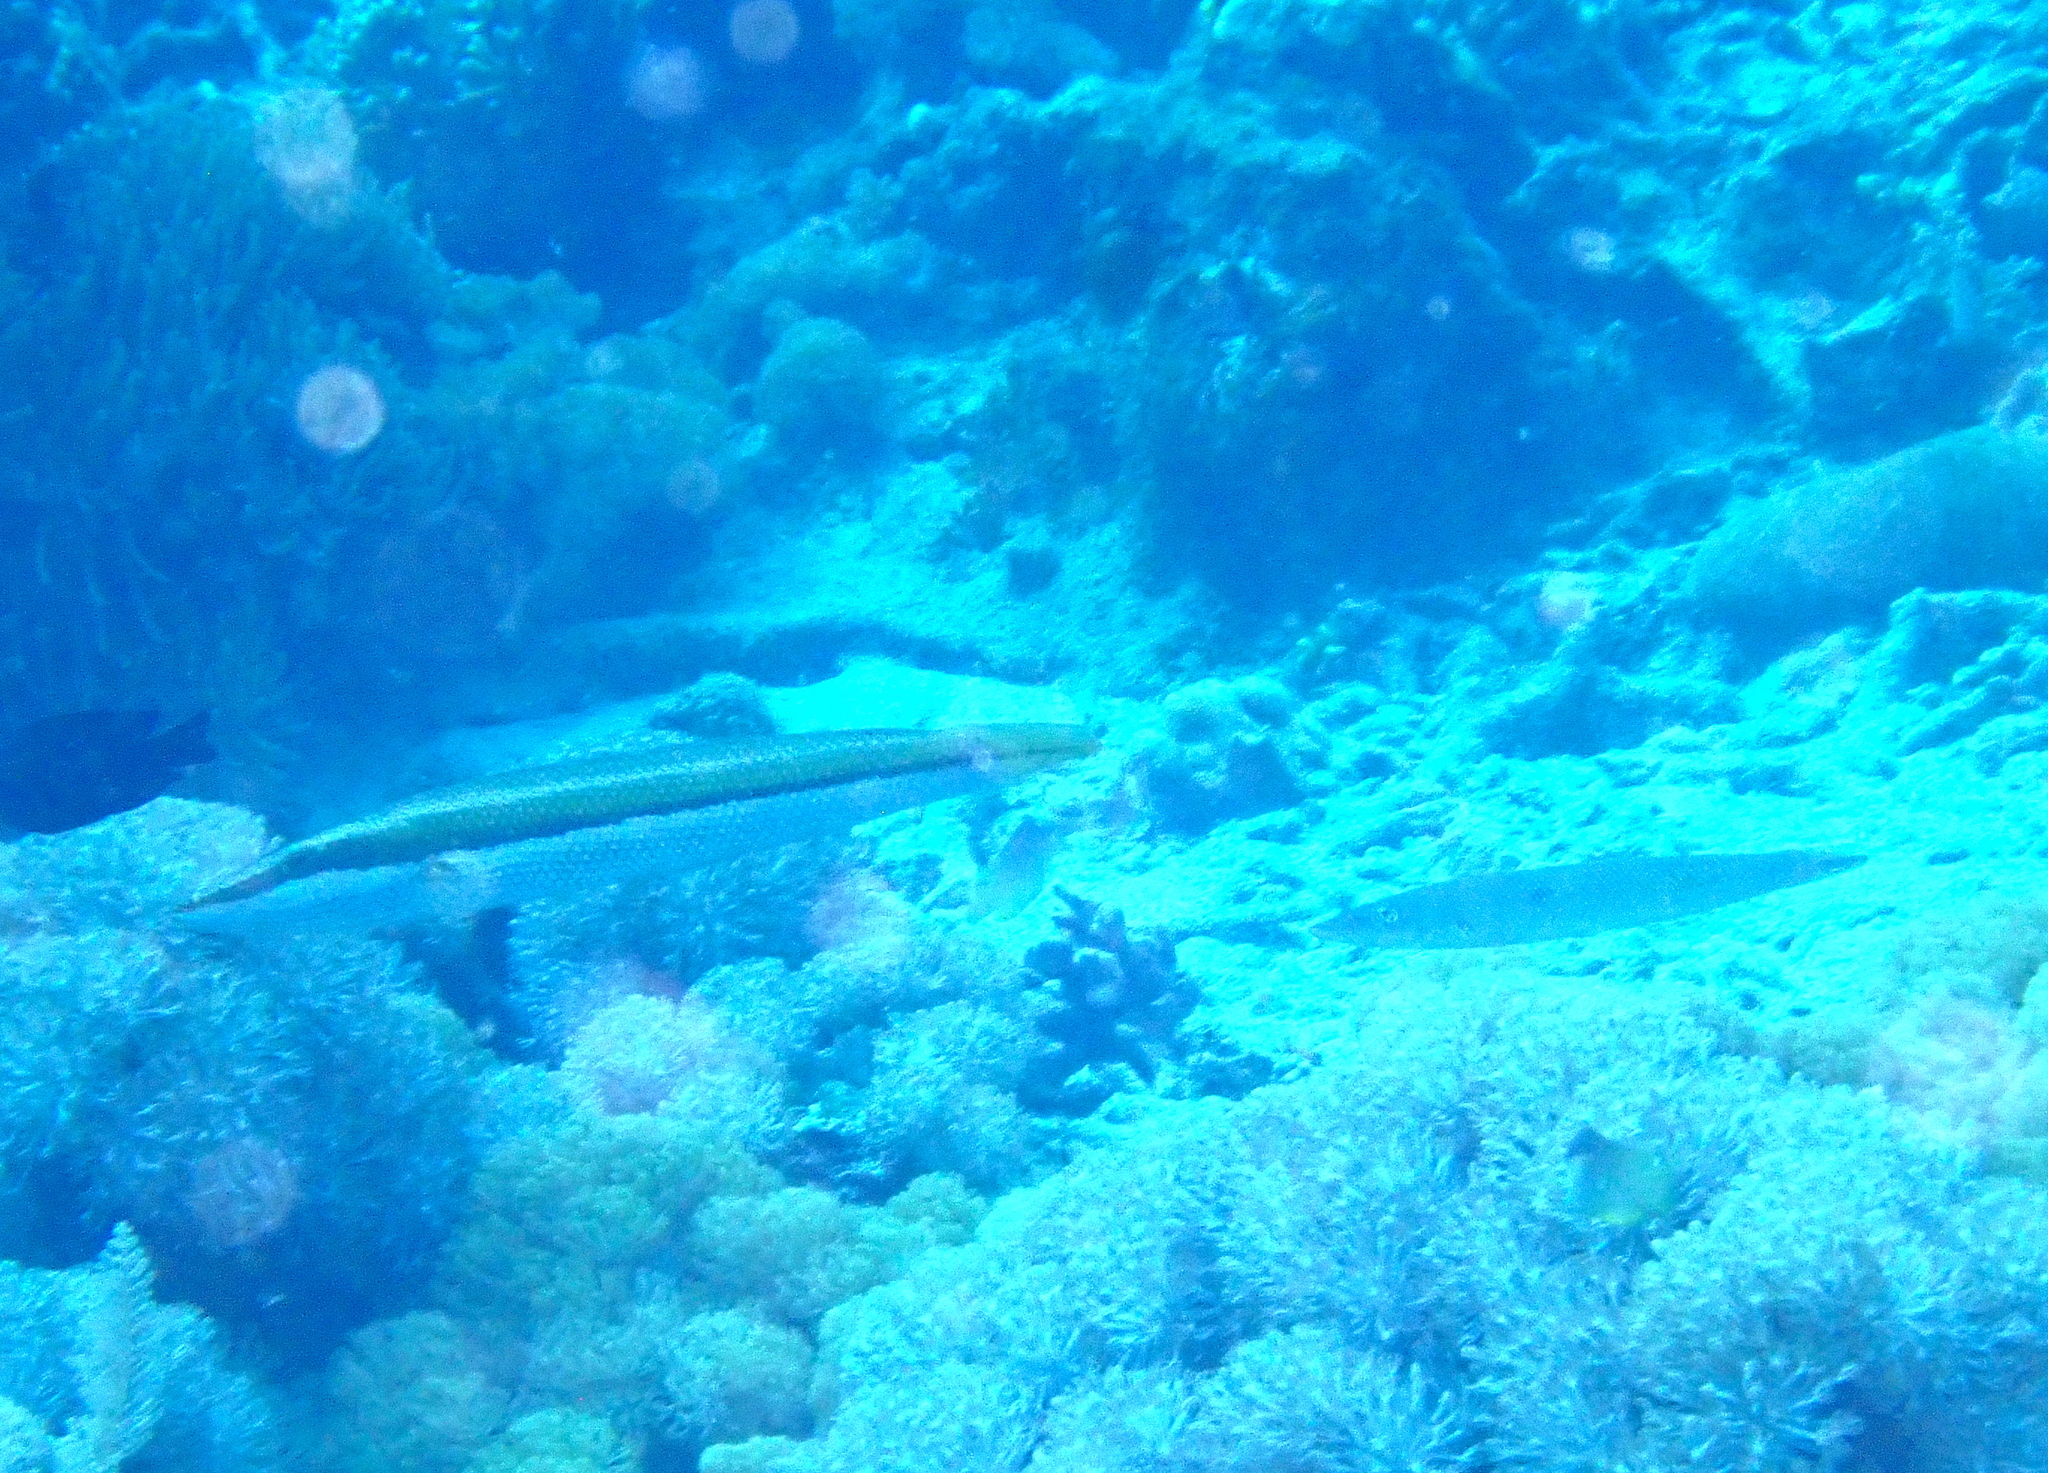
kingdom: Animalia
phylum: Chordata
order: Perciformes
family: Labridae
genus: Cheilio
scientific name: Cheilio inermis
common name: Cigar wrasse
